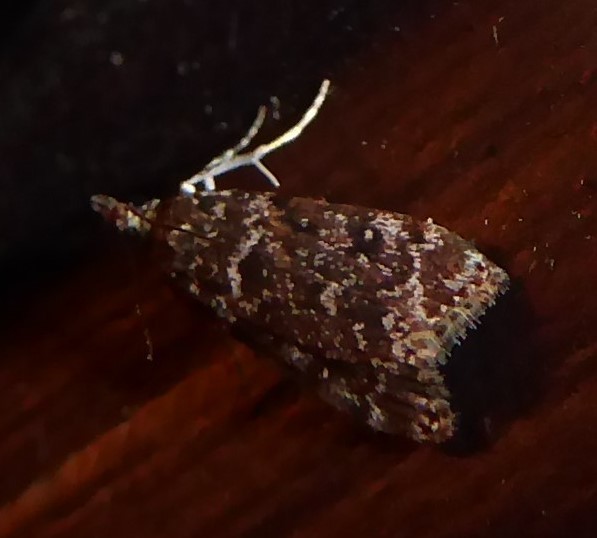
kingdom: Animalia
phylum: Arthropoda
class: Insecta
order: Lepidoptera
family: Crambidae
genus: Eudonia
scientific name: Eudonia philerga
